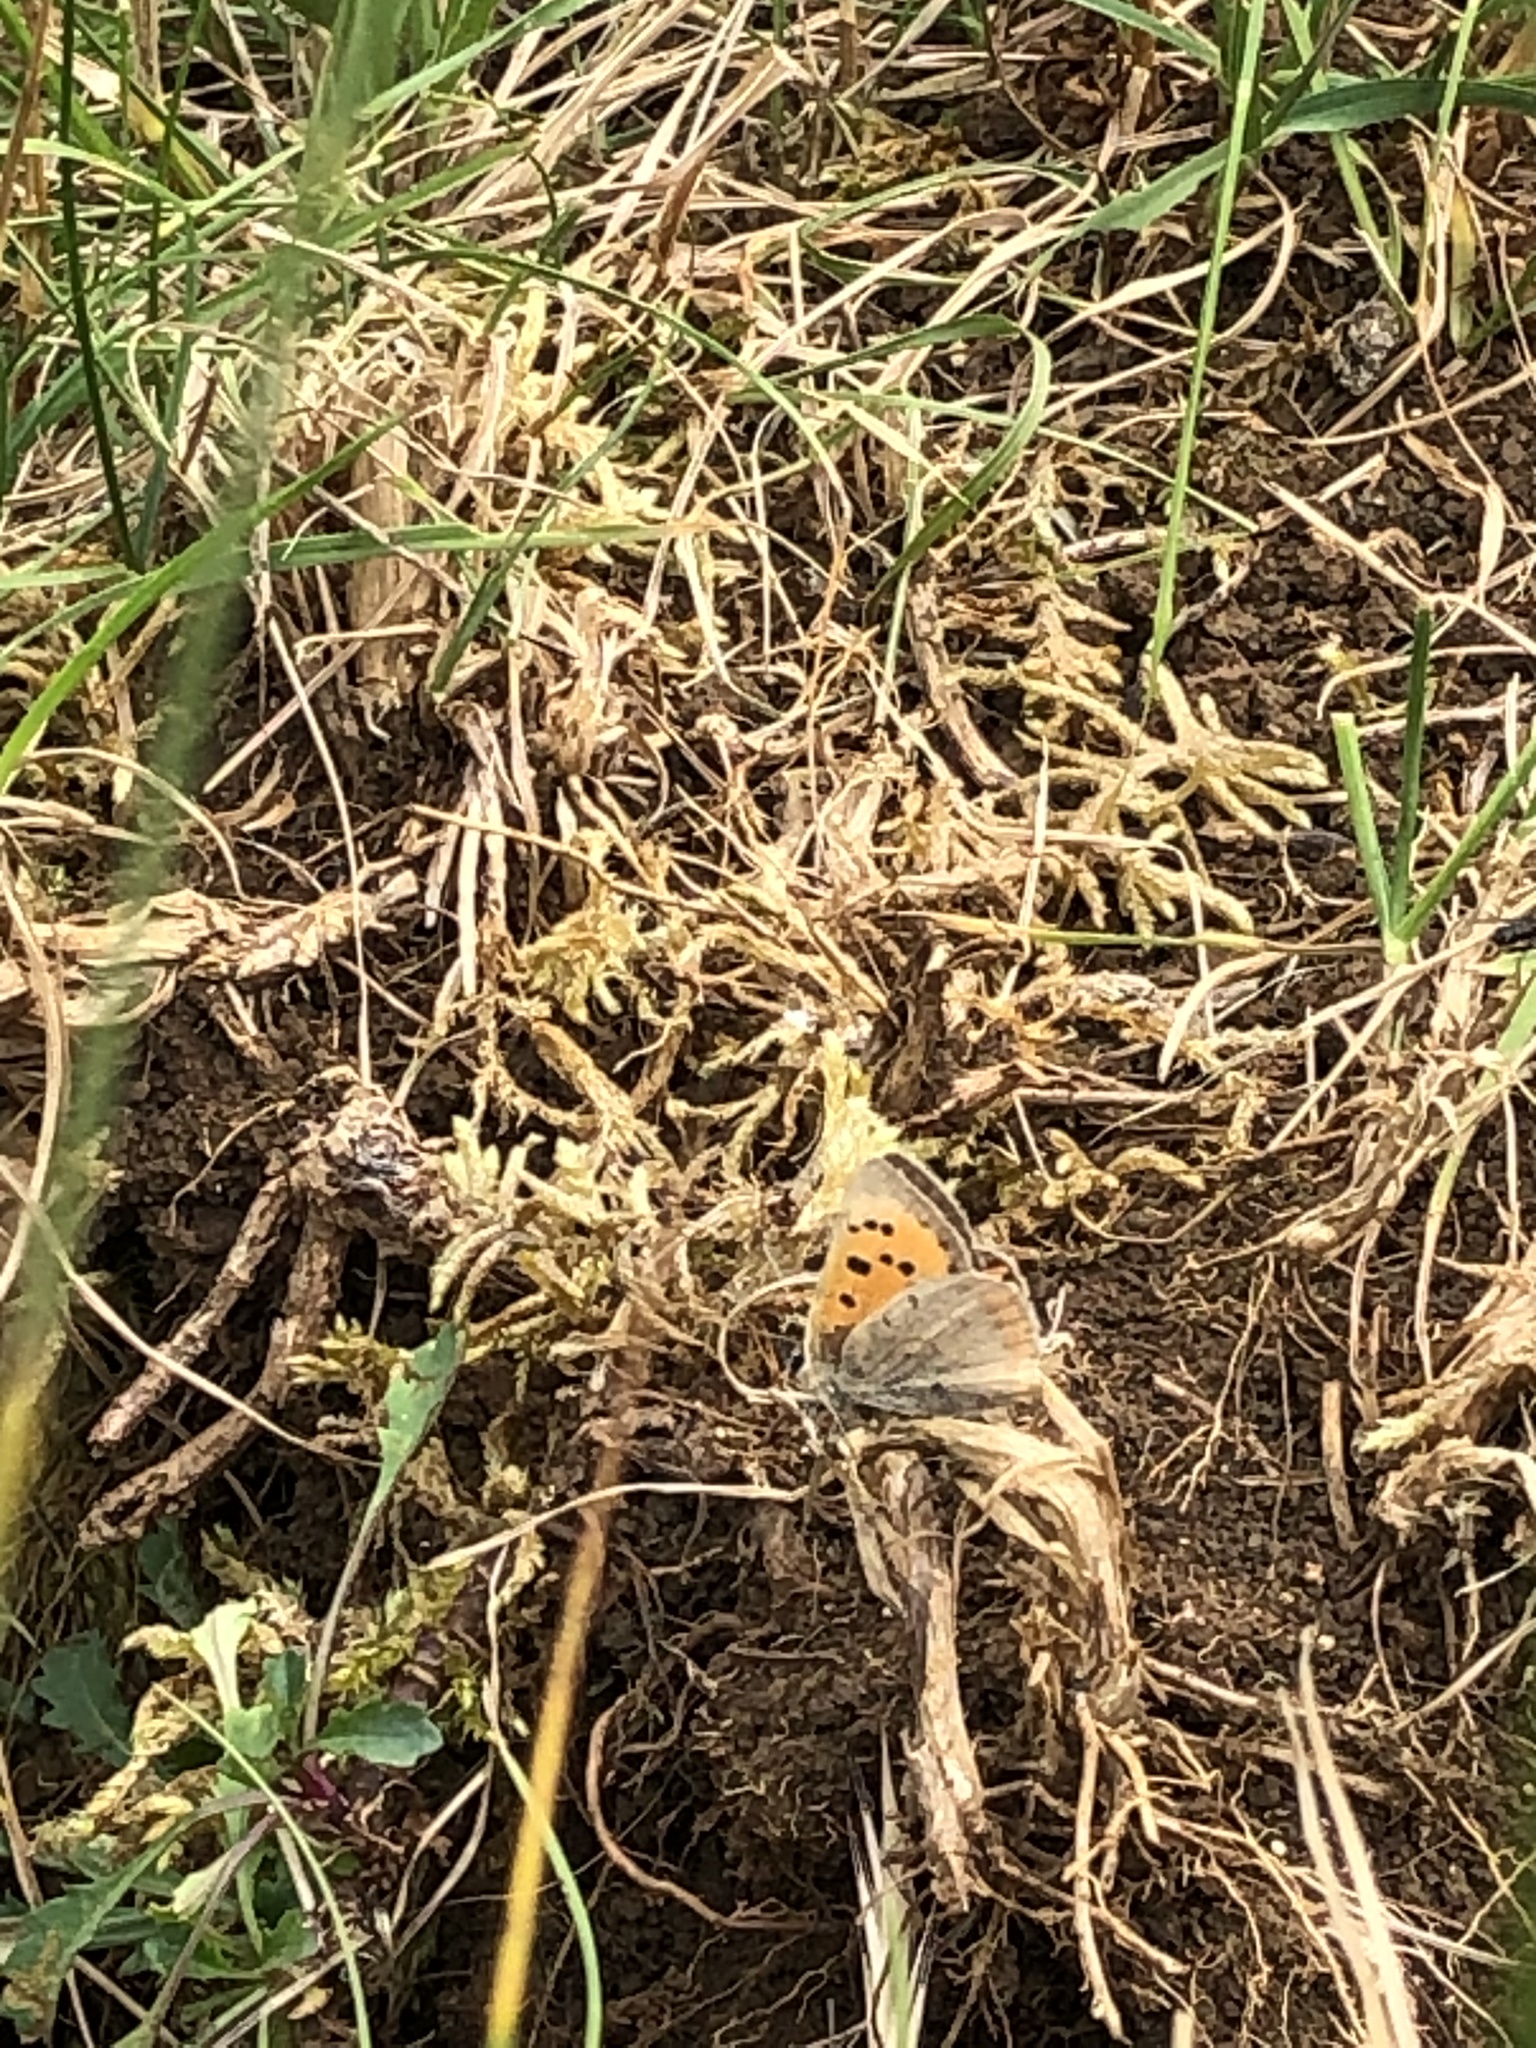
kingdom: Animalia
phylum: Arthropoda
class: Insecta
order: Lepidoptera
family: Lycaenidae
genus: Lycaena
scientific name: Lycaena phlaeas
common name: Small copper
